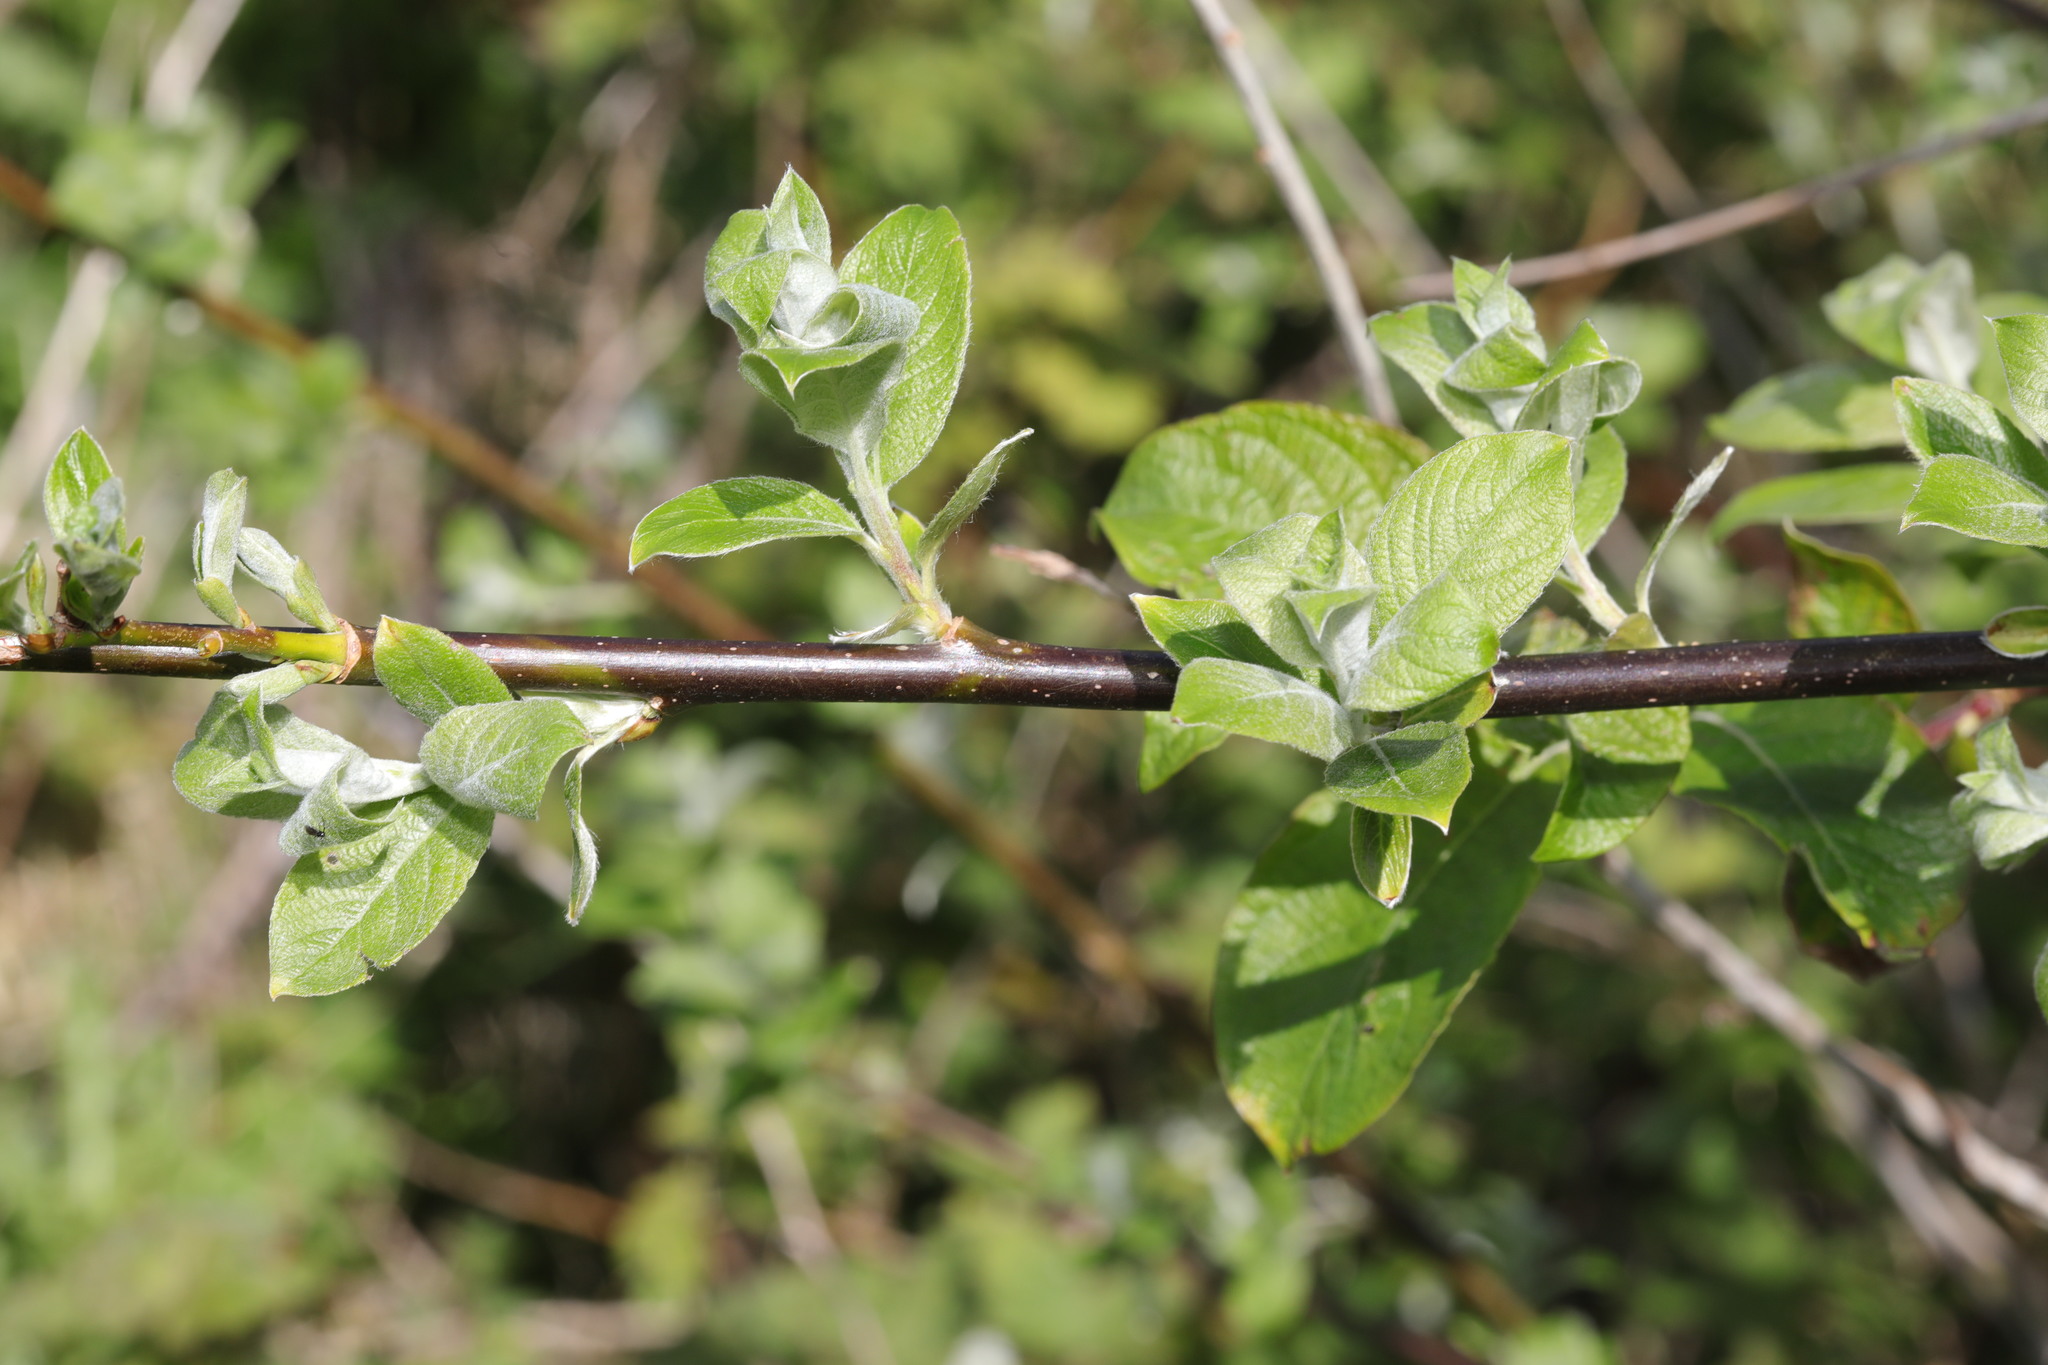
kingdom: Plantae
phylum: Tracheophyta
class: Magnoliopsida
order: Malpighiales
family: Salicaceae
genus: Salix
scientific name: Salix caprea
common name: Goat willow
